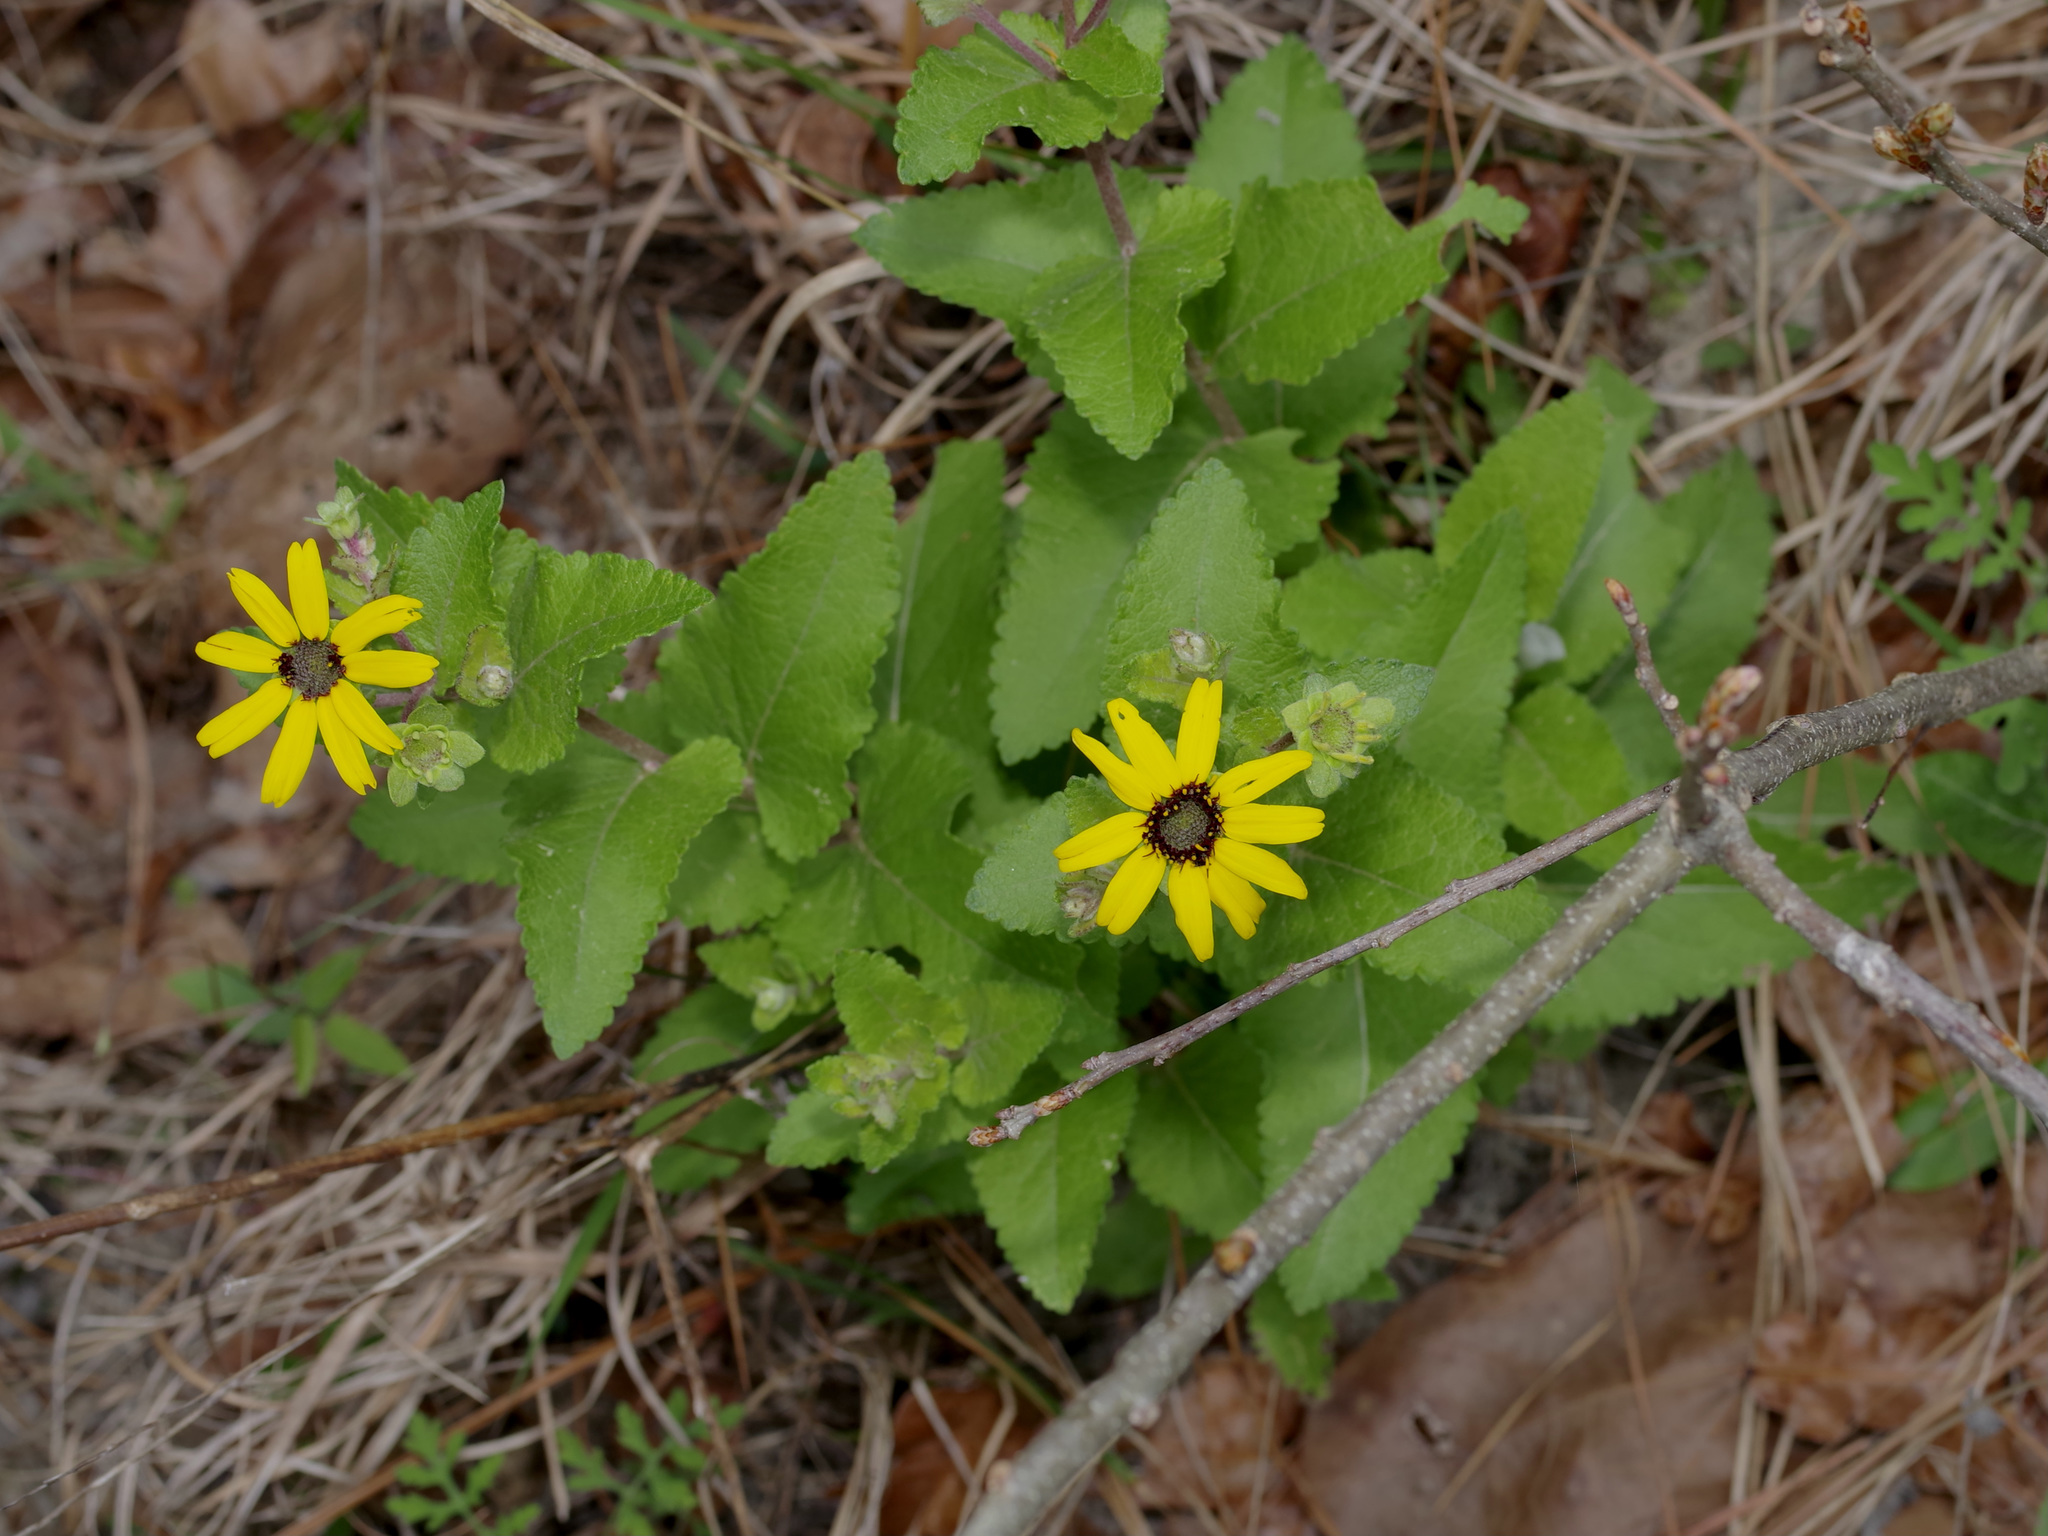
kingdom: Plantae
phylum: Tracheophyta
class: Magnoliopsida
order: Asterales
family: Asteraceae
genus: Berlandiera
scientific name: Berlandiera pumila
